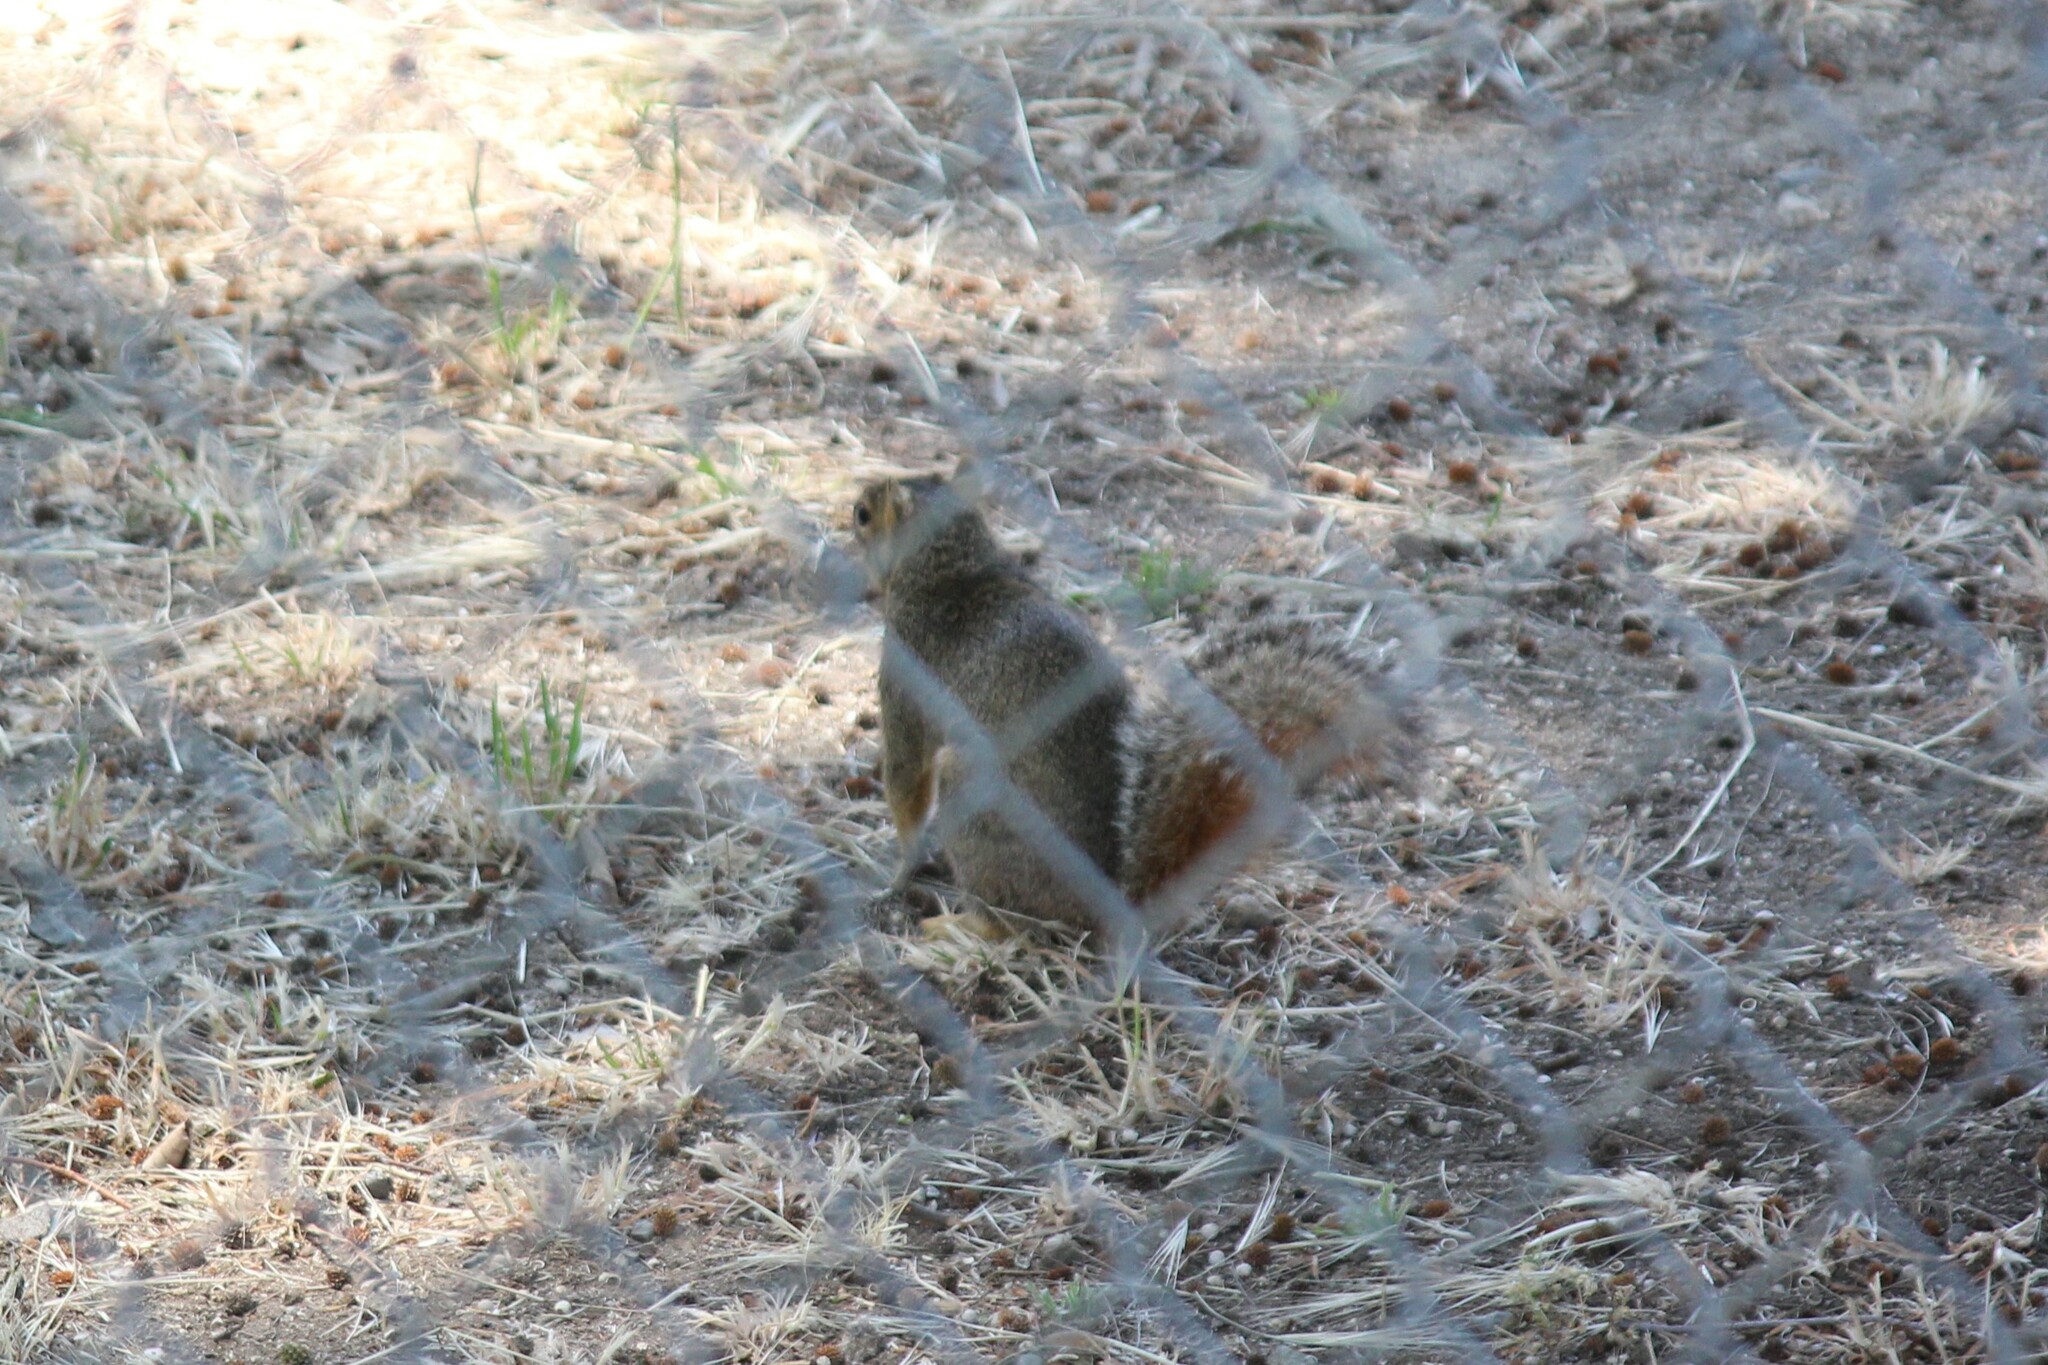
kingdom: Animalia
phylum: Chordata
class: Mammalia
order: Rodentia
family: Sciuridae
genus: Sciurus
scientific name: Sciurus niger
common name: Fox squirrel
